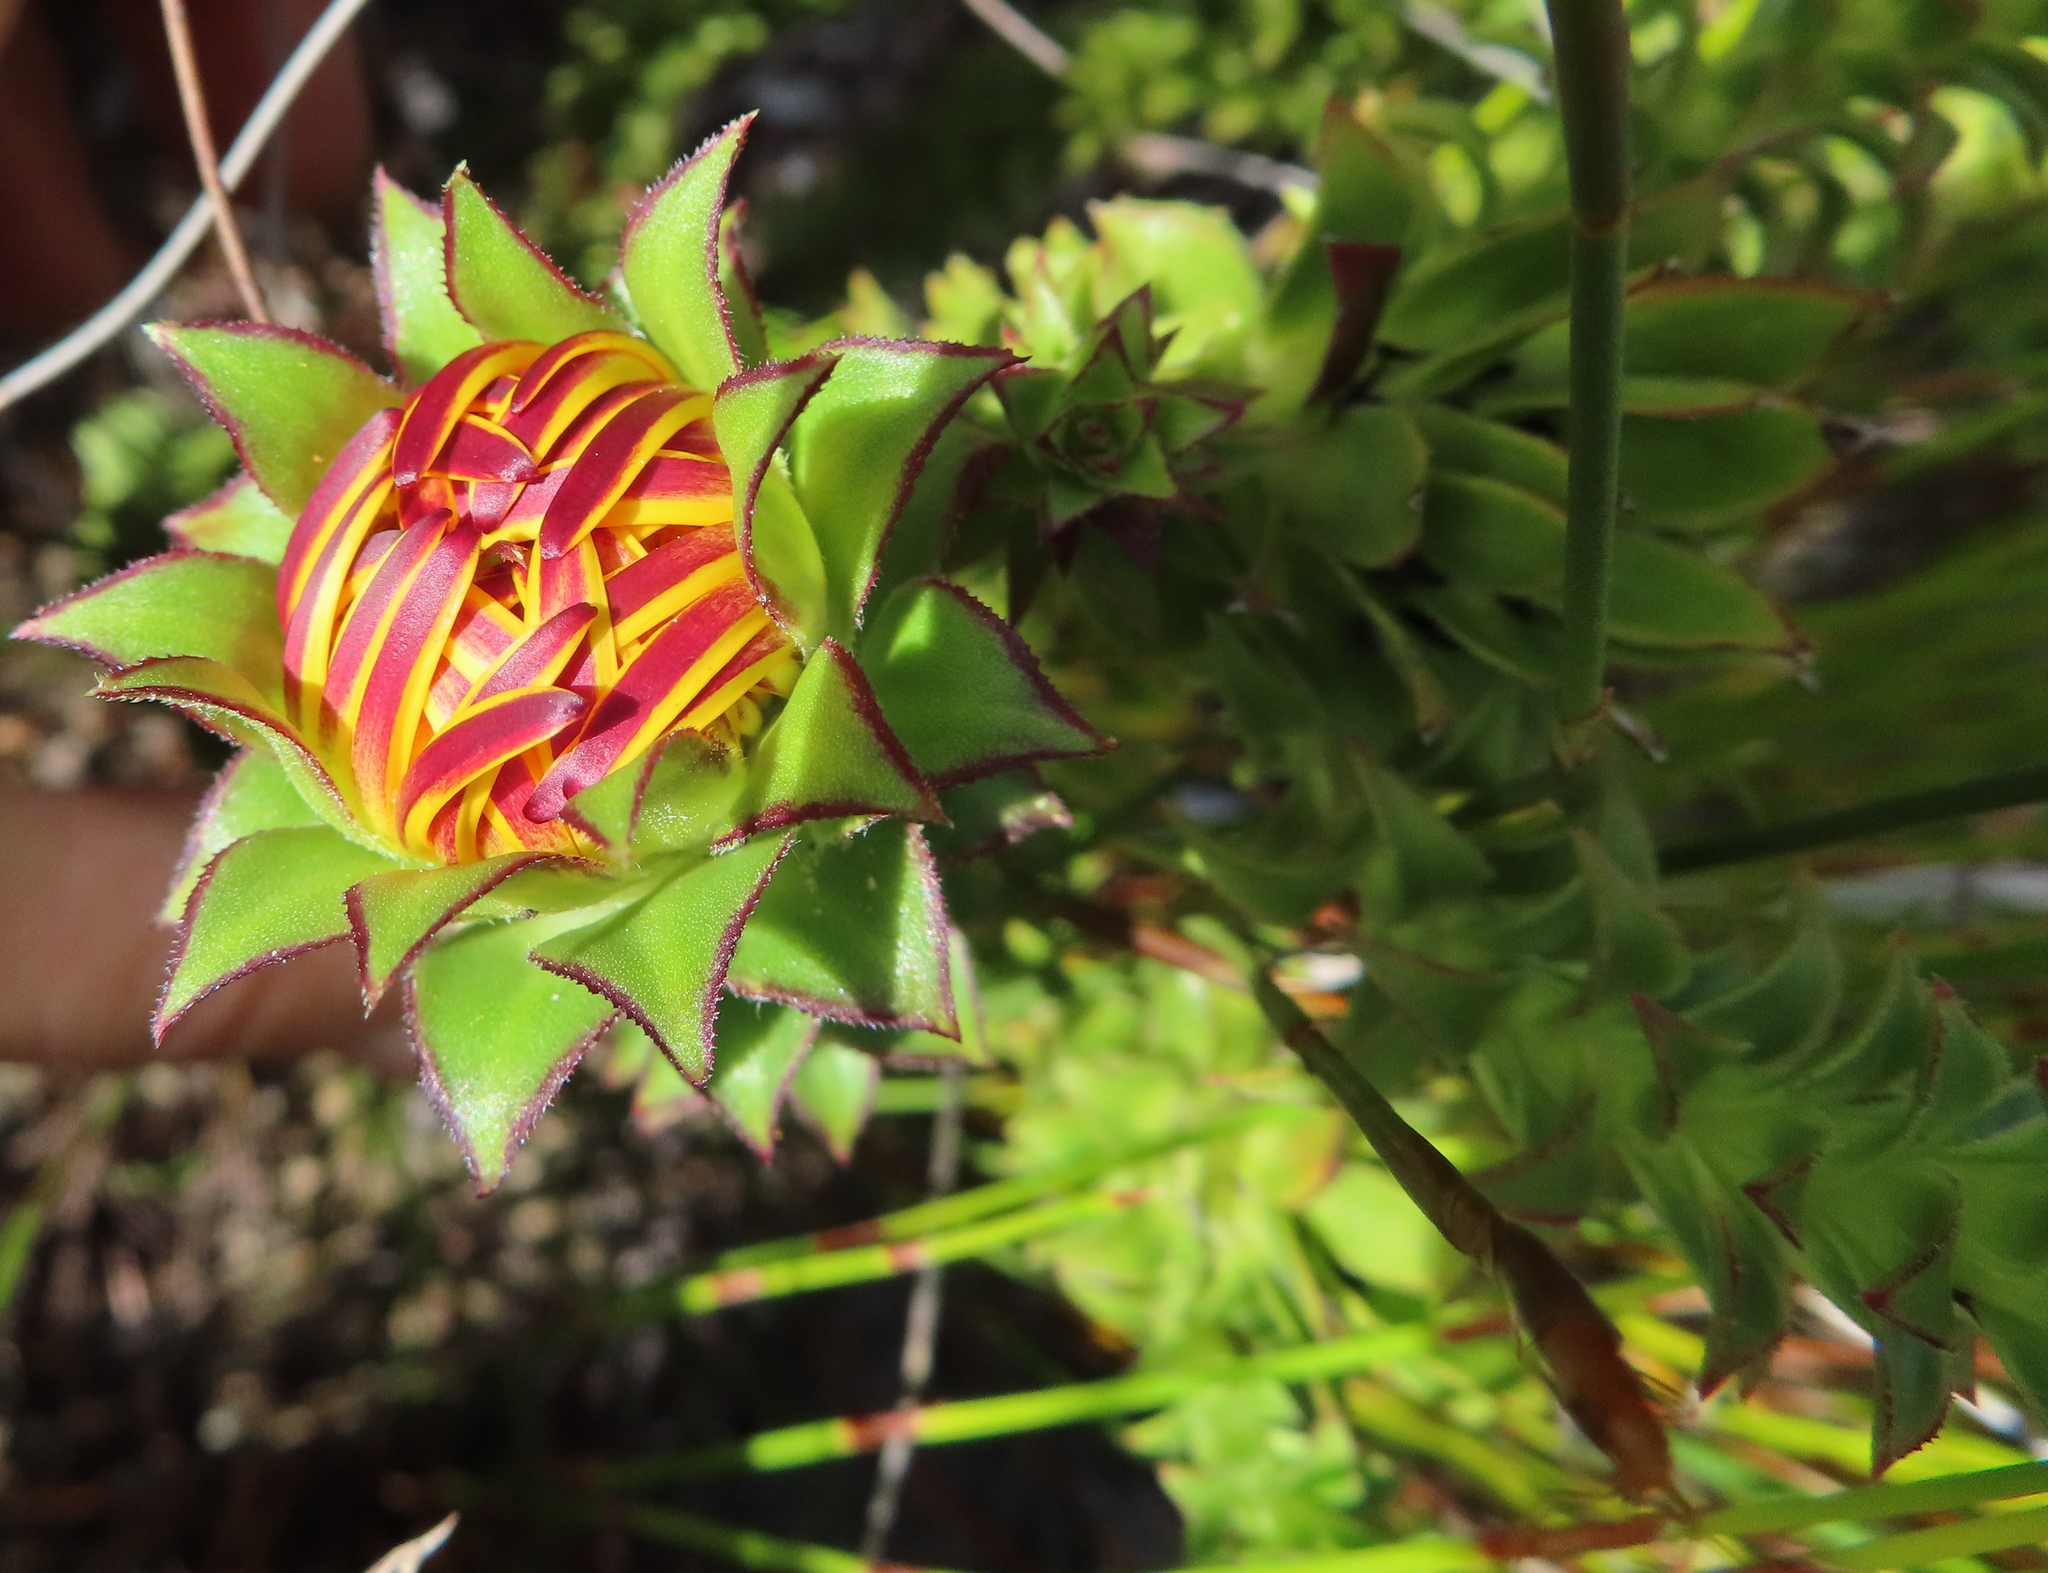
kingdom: Plantae
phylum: Tracheophyta
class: Magnoliopsida
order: Asterales
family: Asteraceae
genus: Oedera
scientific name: Oedera imbricata
